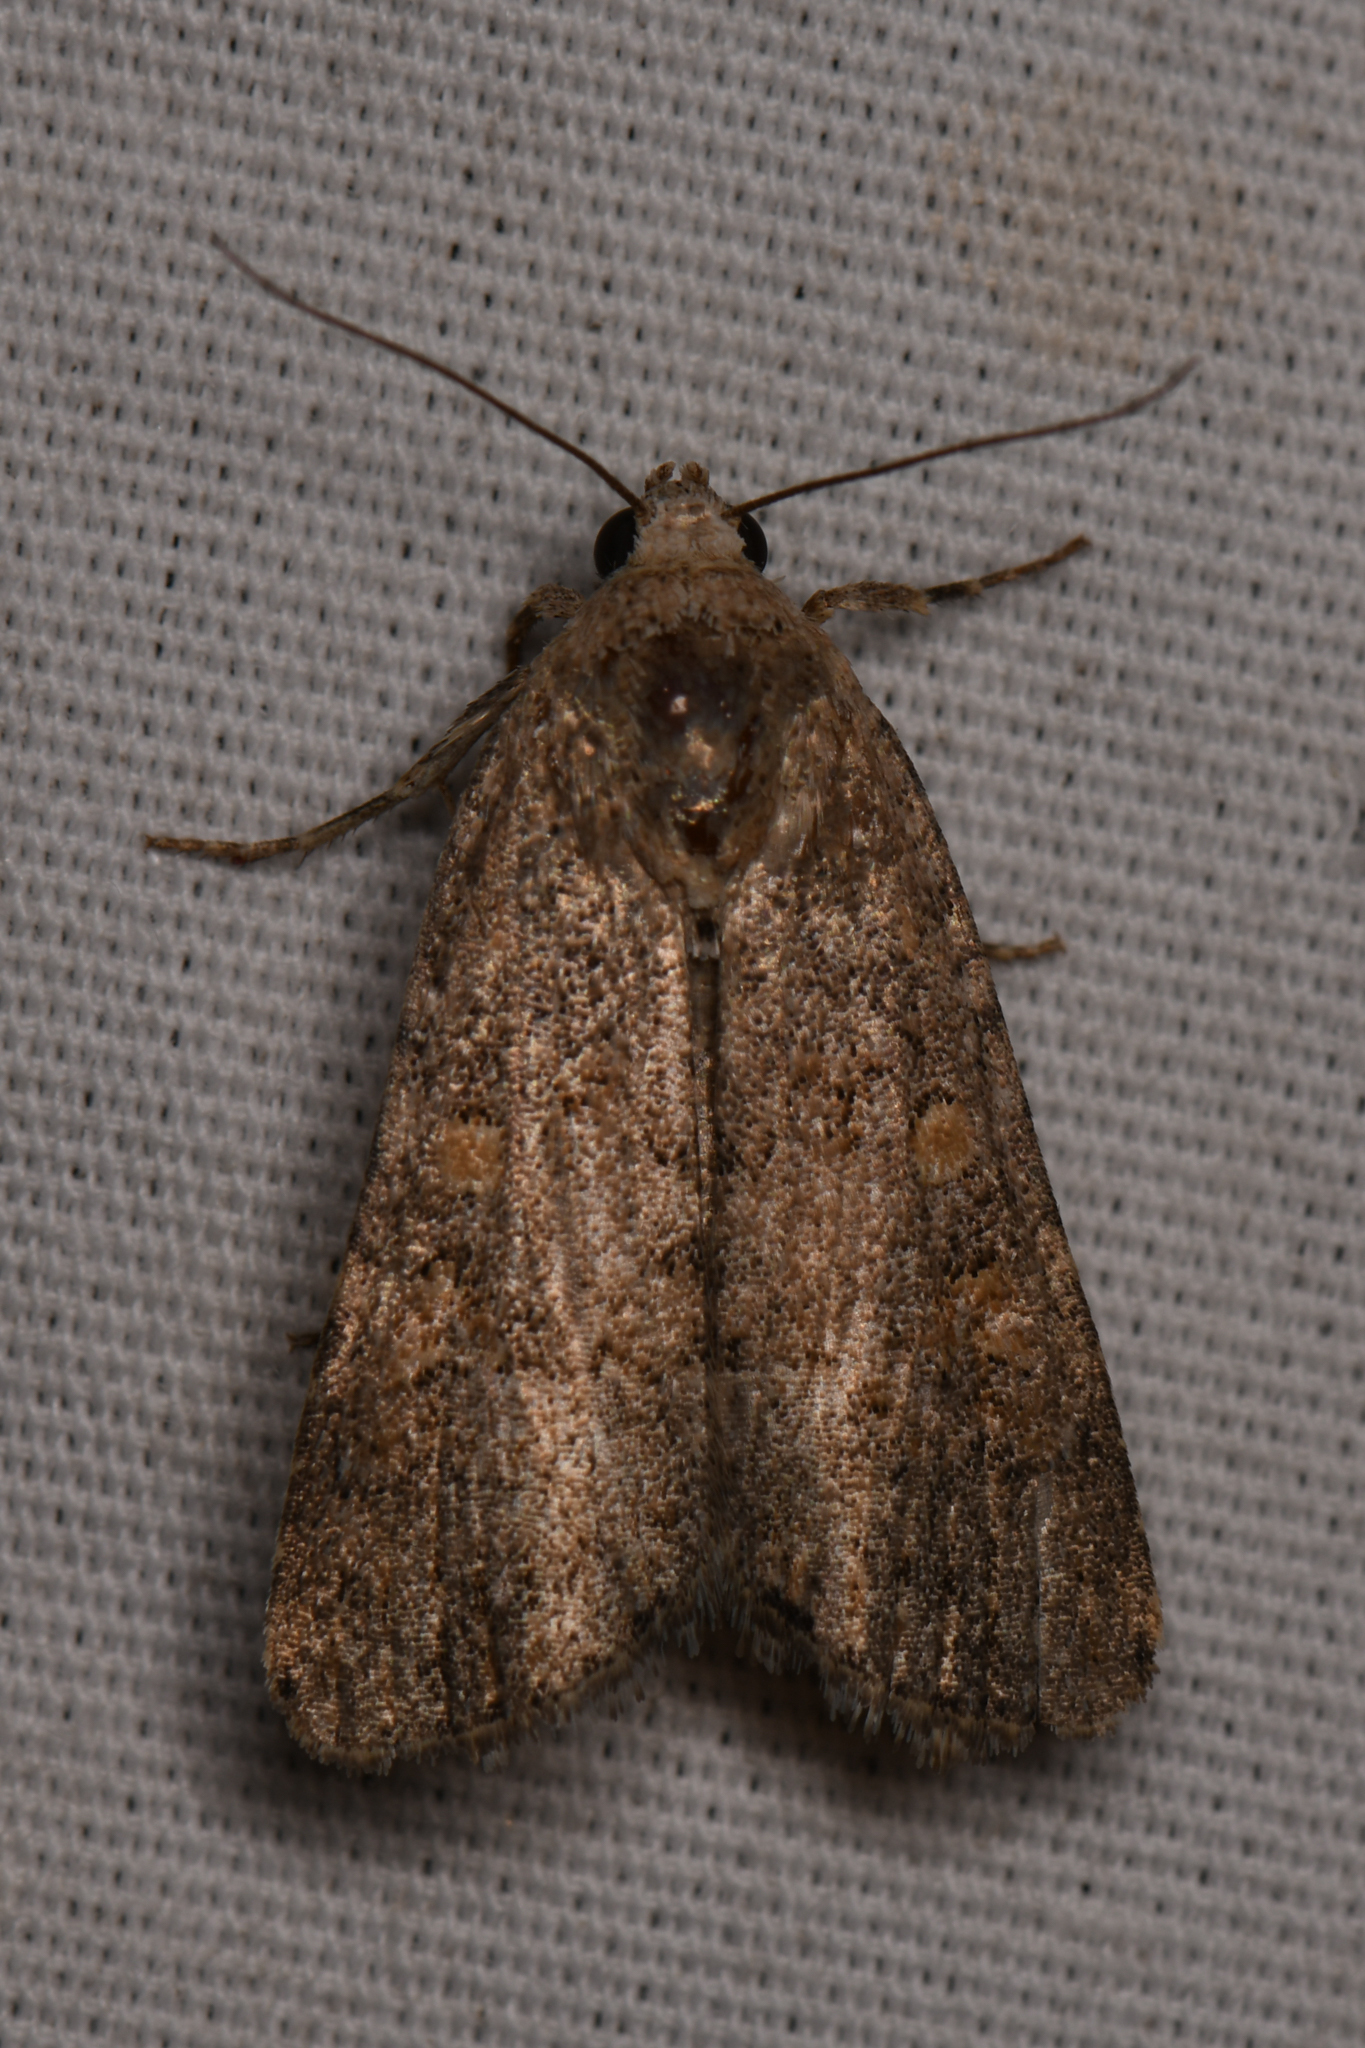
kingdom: Animalia
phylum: Arthropoda
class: Insecta
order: Lepidoptera
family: Noctuidae
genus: Spodoptera
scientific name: Spodoptera exigua
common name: Beet armyworm
